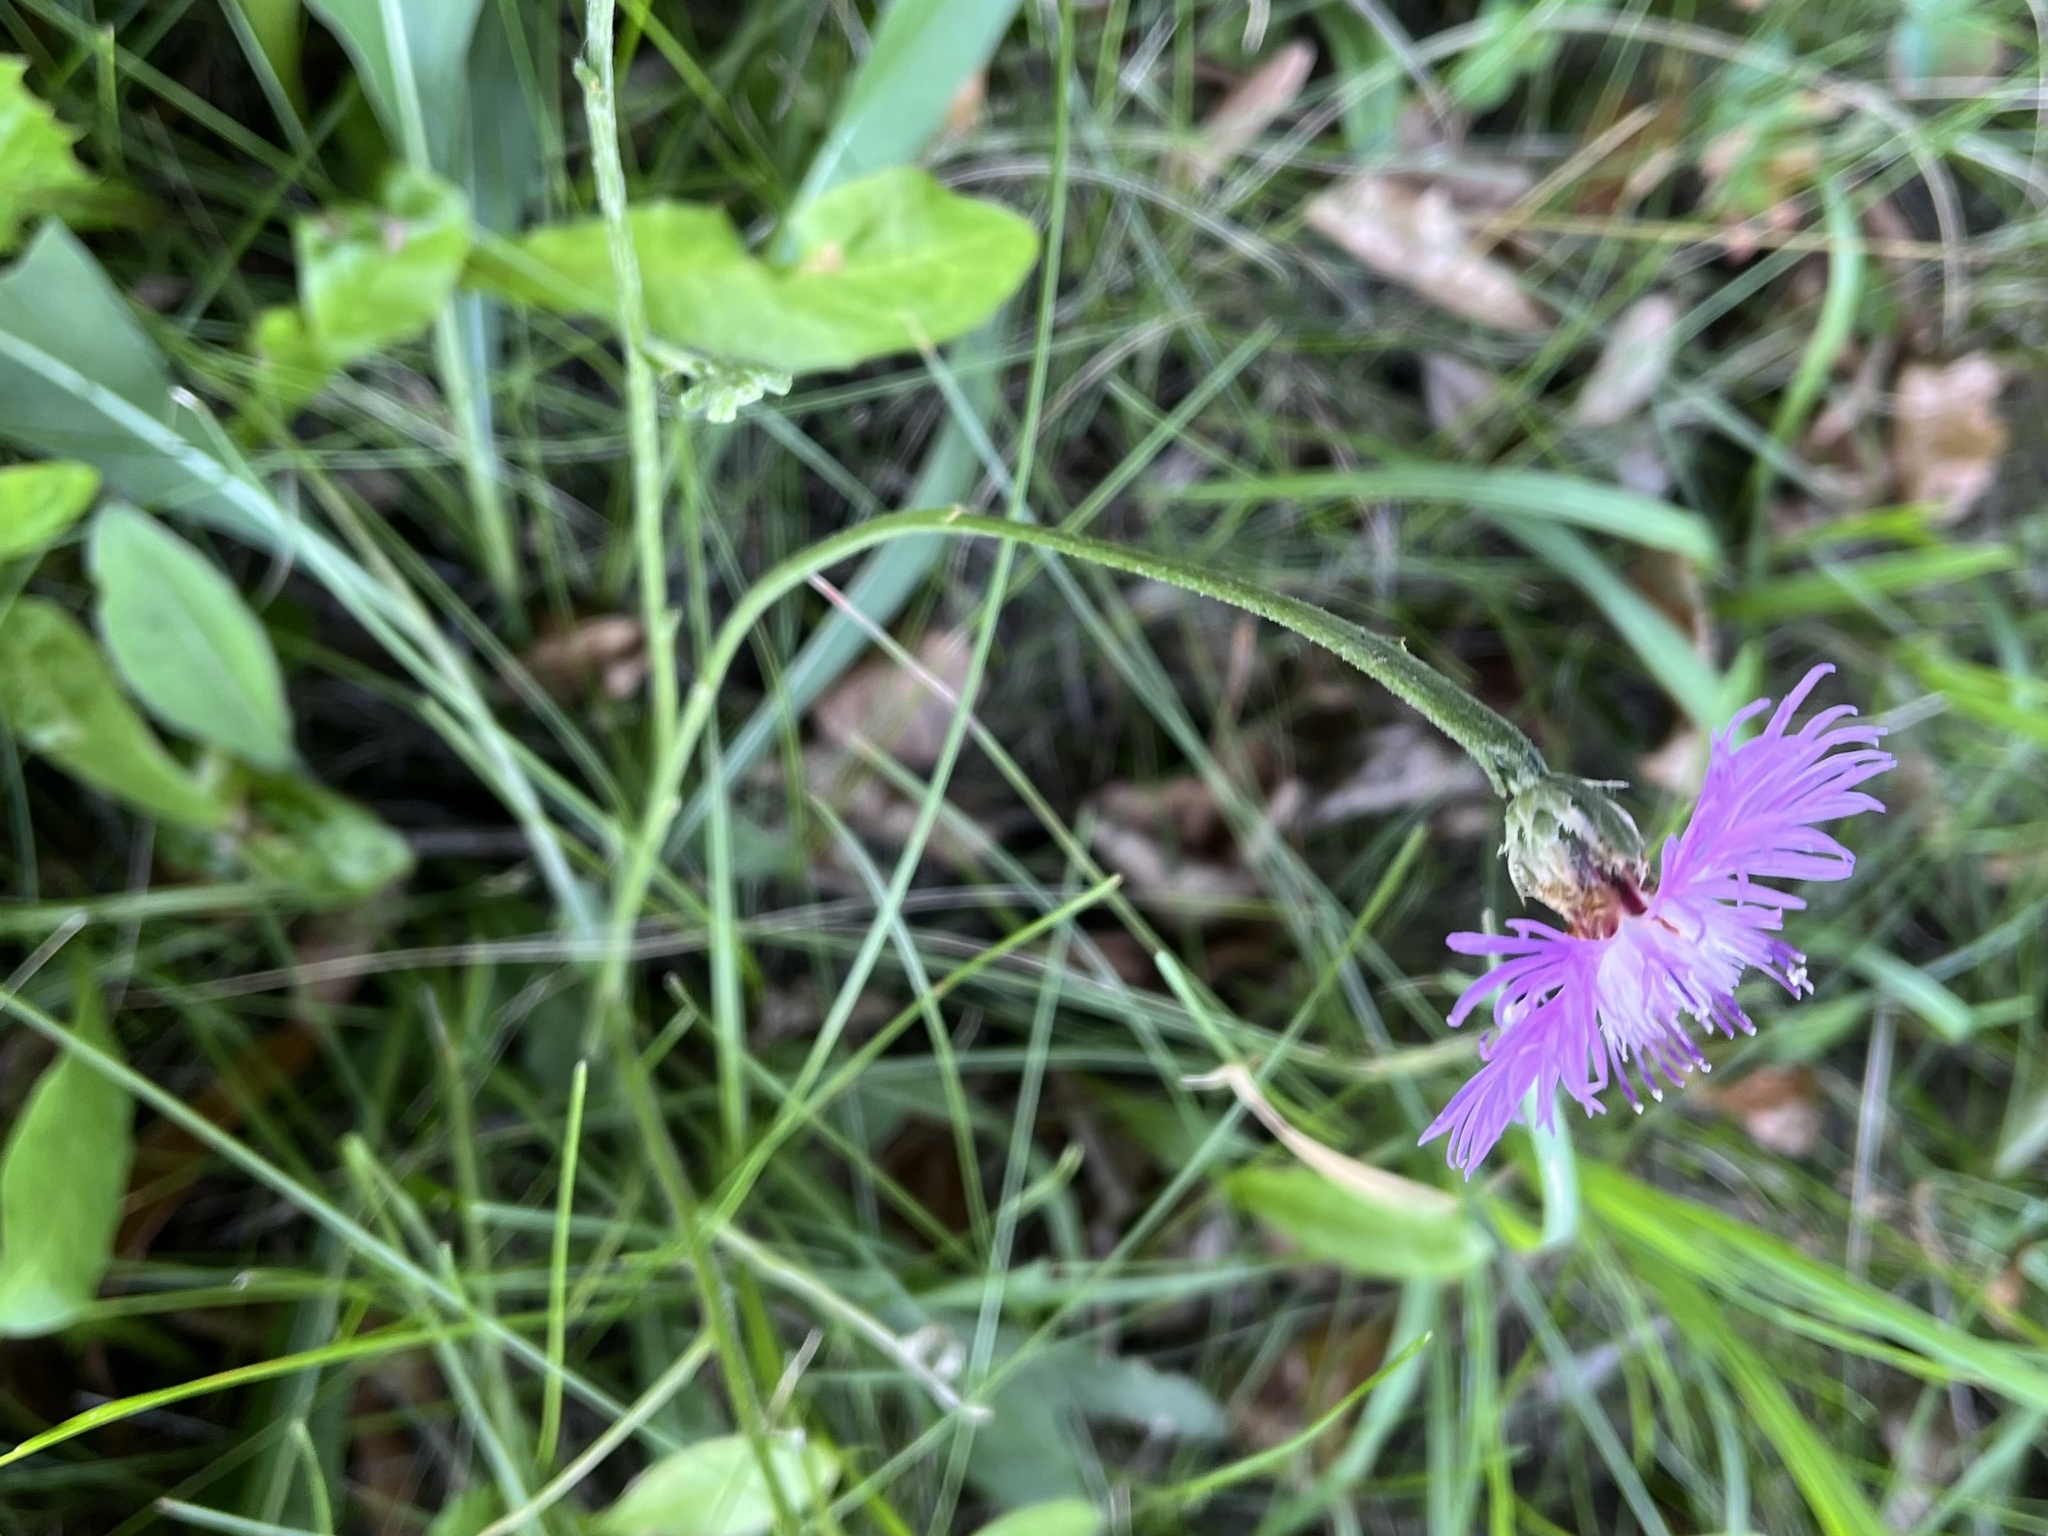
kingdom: Plantae
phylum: Tracheophyta
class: Magnoliopsida
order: Asterales
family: Asteraceae
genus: Centaurea
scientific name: Centaurea jacea
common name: Brown knapweed
